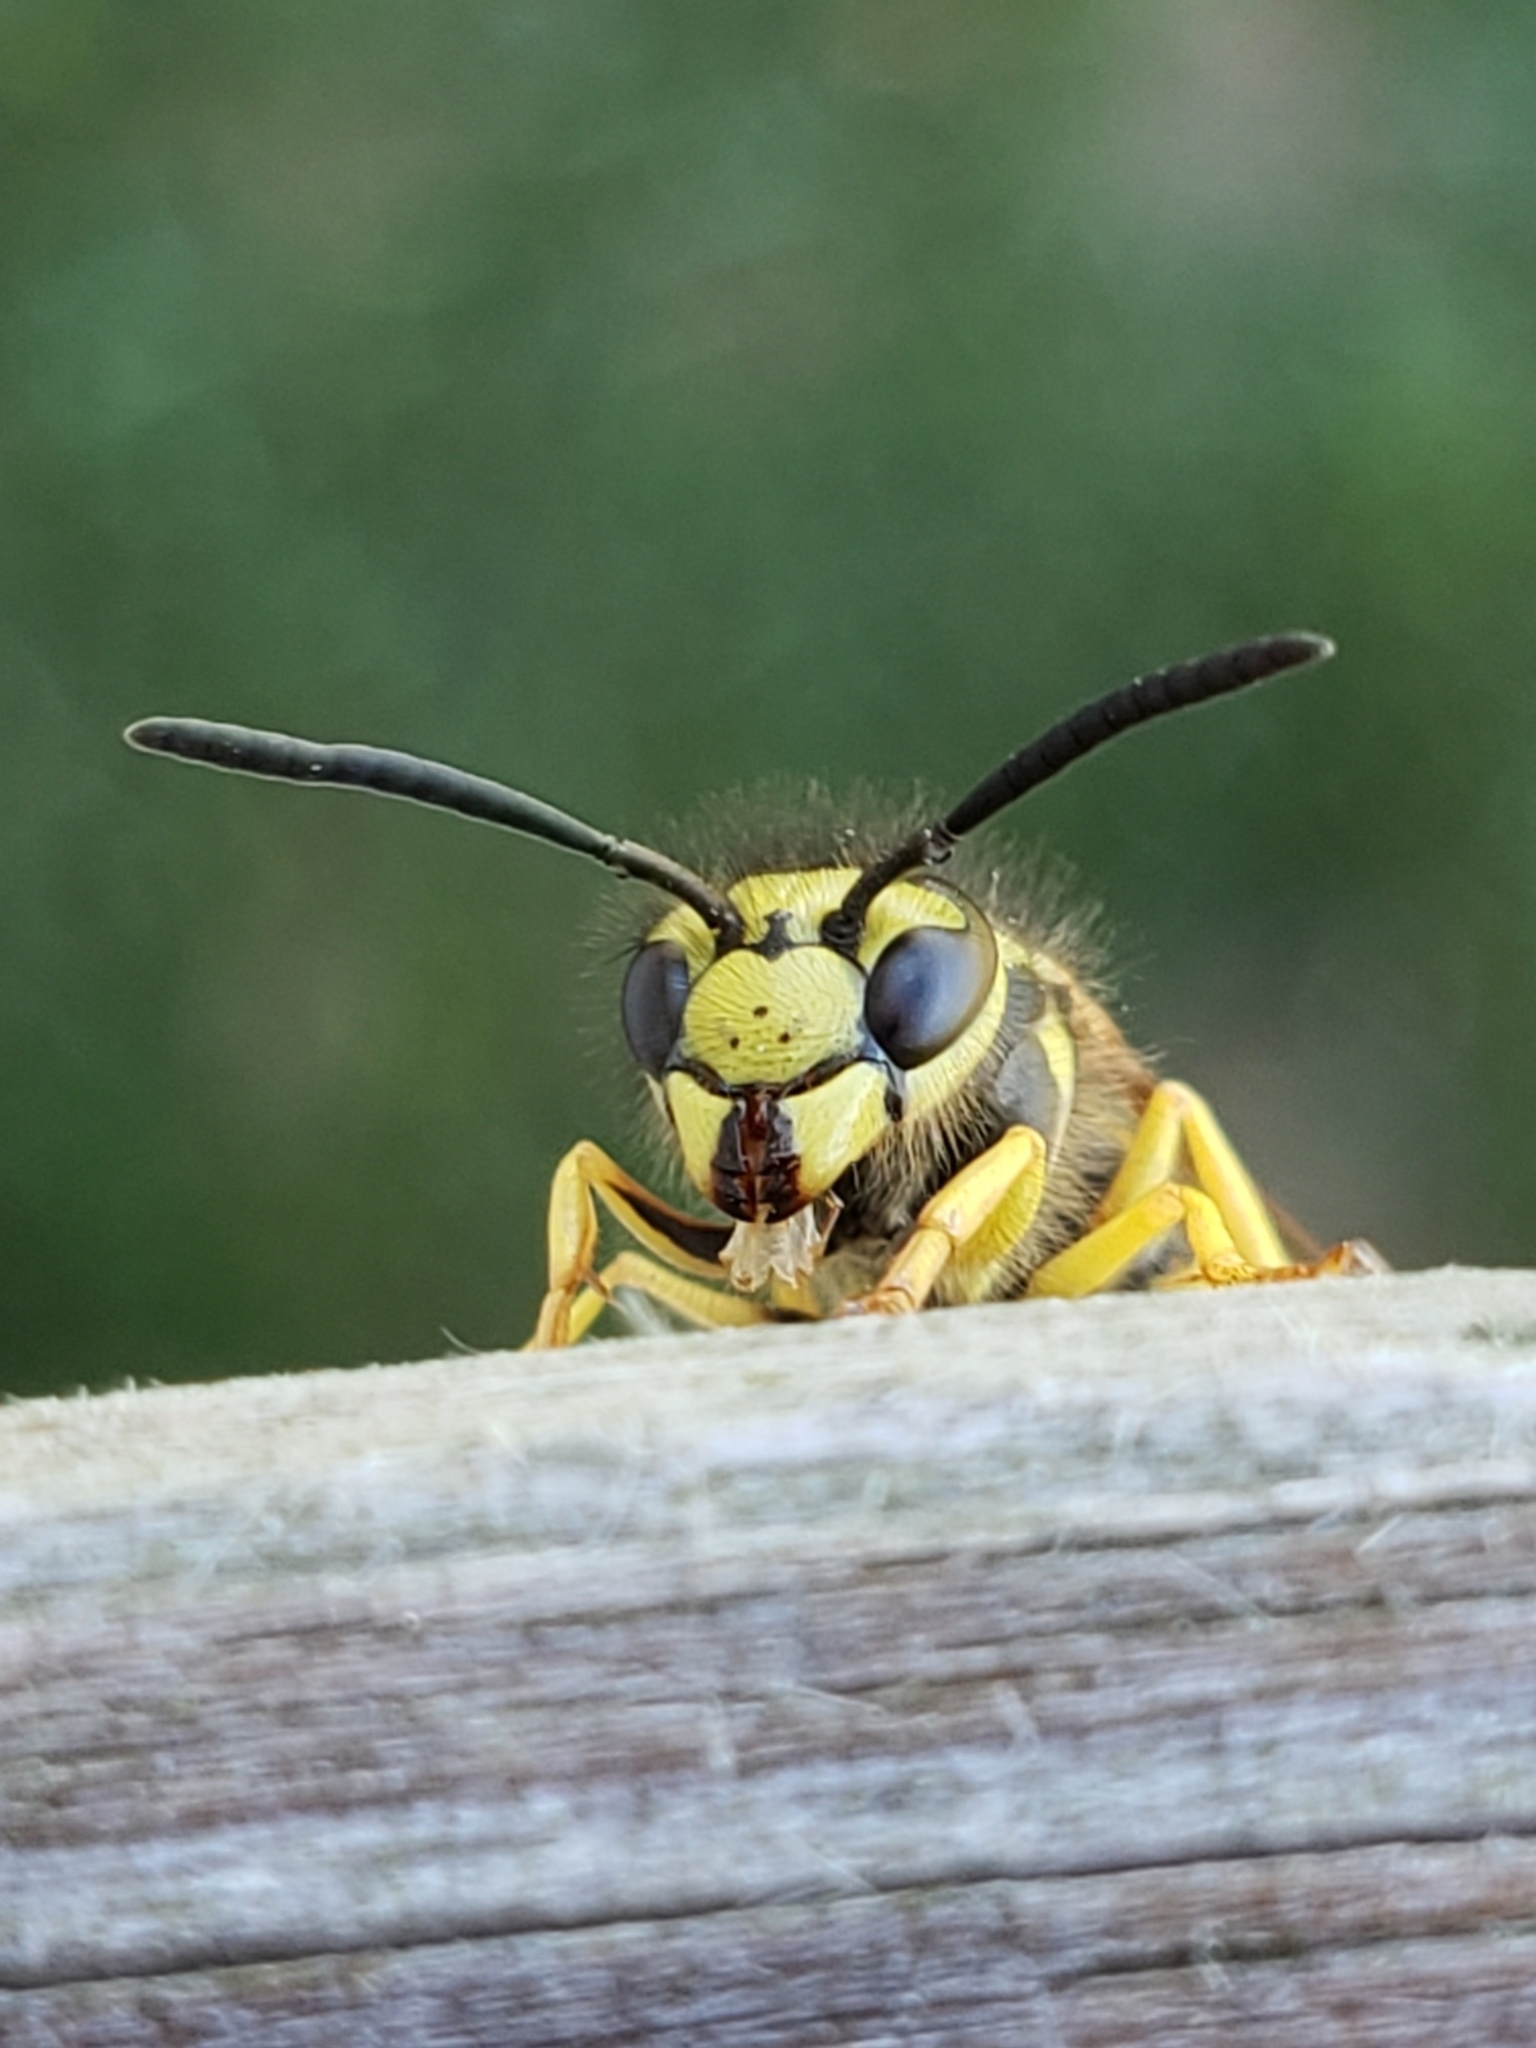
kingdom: Animalia
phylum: Arthropoda
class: Insecta
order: Hymenoptera
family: Vespidae
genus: Vespula
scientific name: Vespula maculifrons
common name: Eastern yellowjacket
